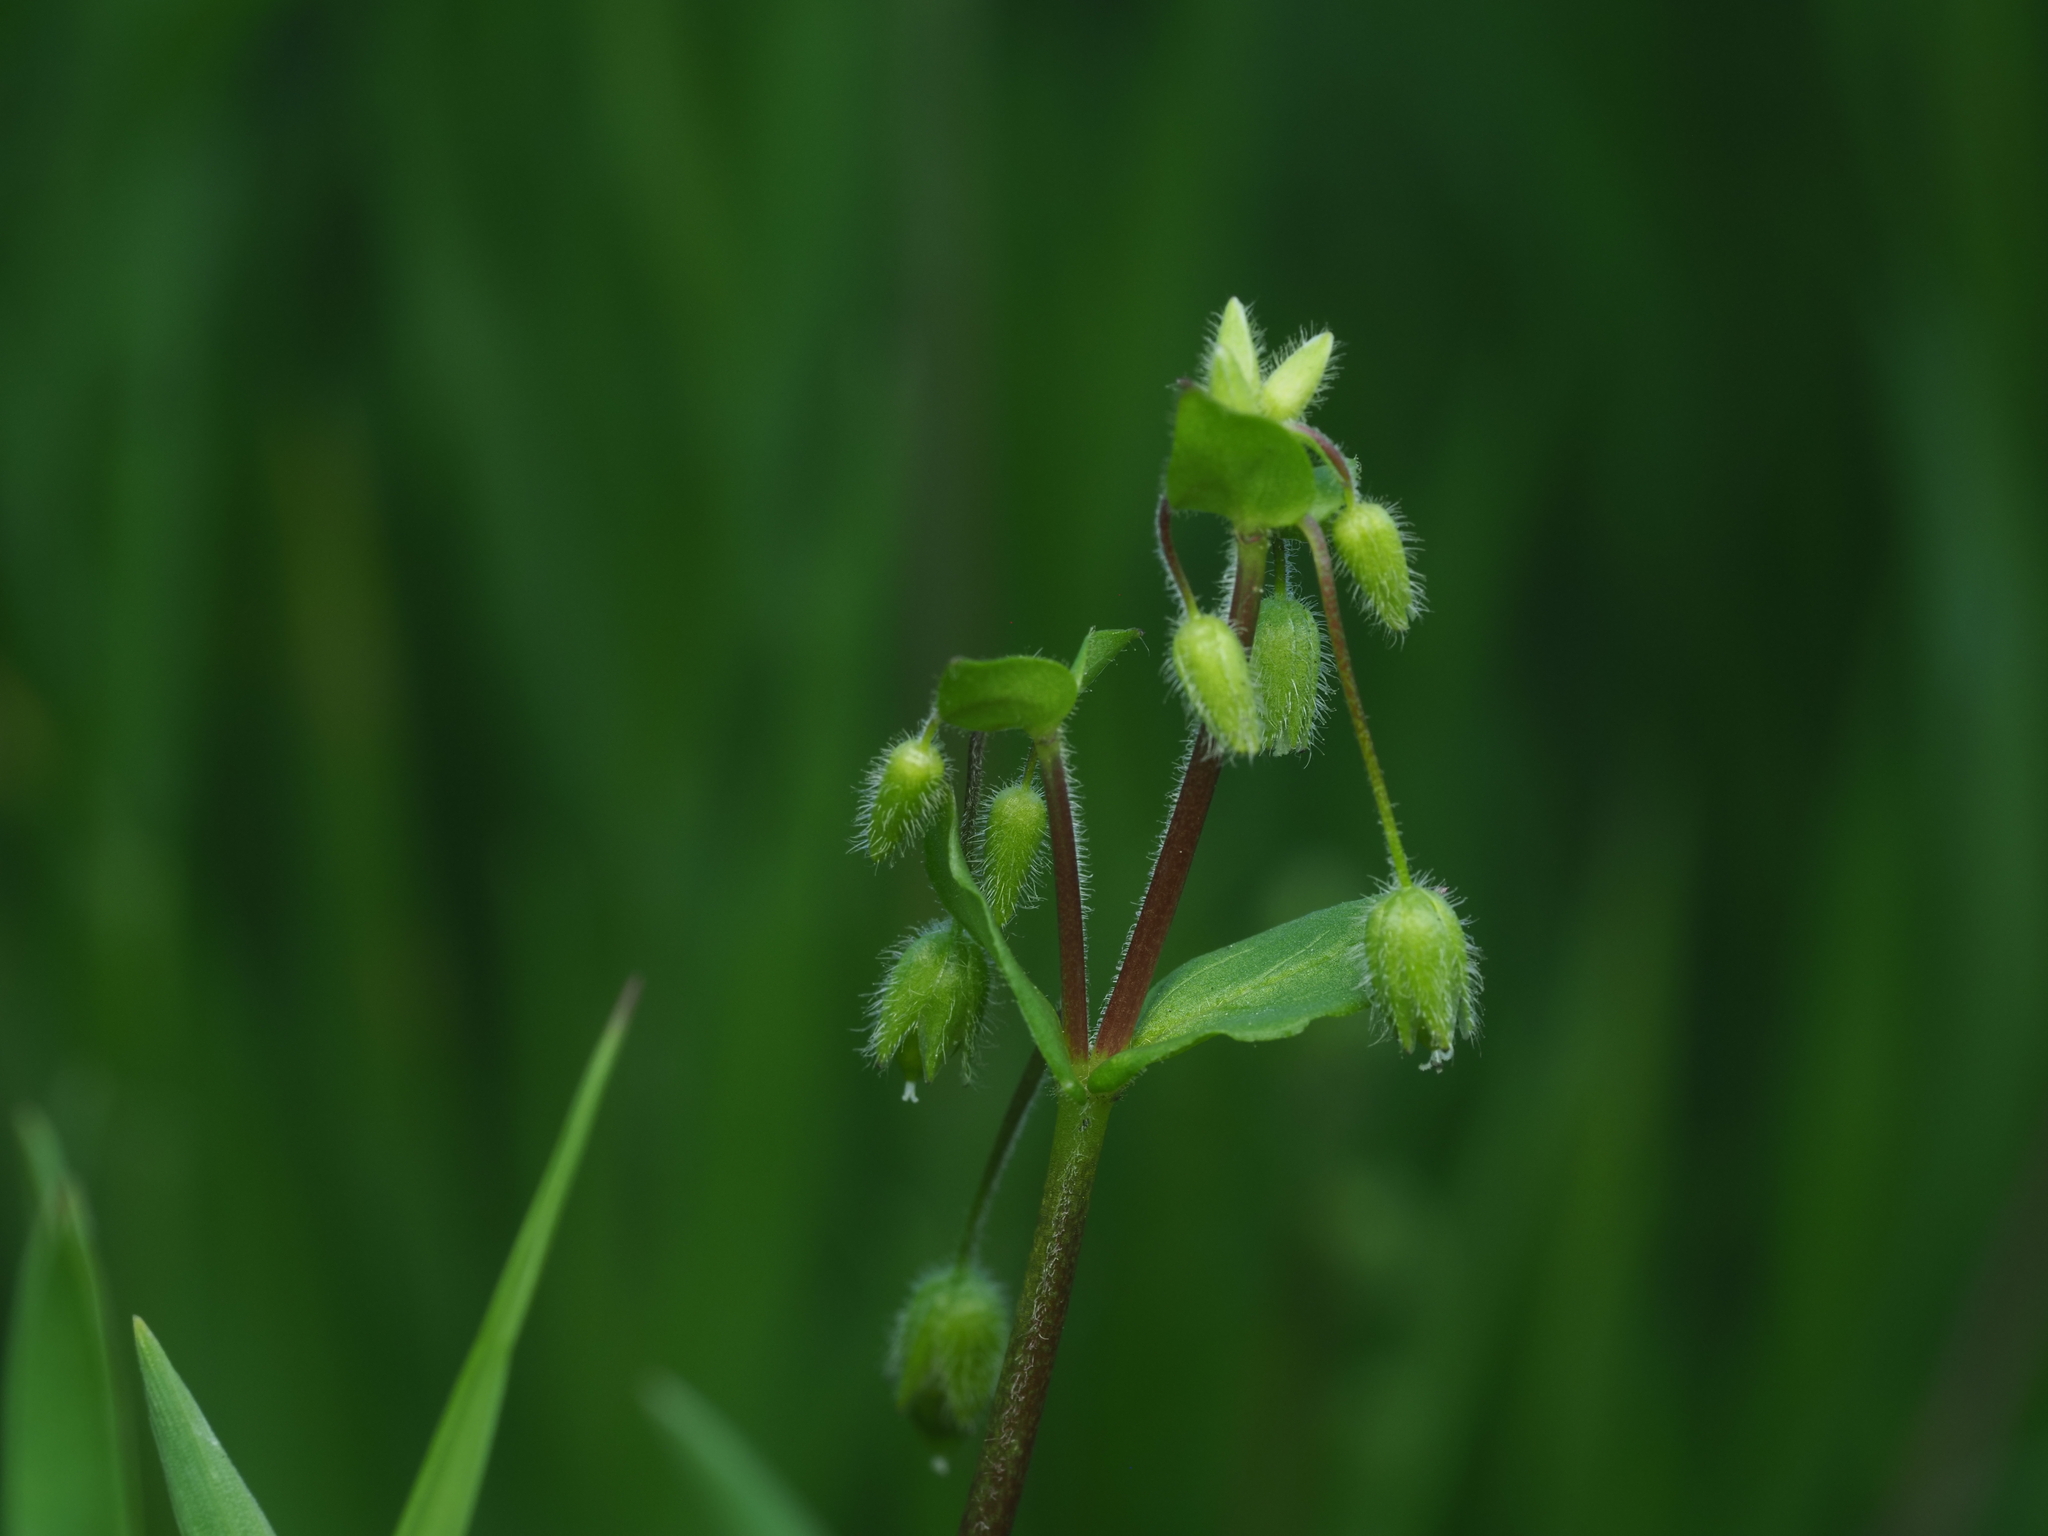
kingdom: Plantae
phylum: Tracheophyta
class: Magnoliopsida
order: Caryophyllales
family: Caryophyllaceae
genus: Stellaria
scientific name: Stellaria media
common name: Common chickweed
